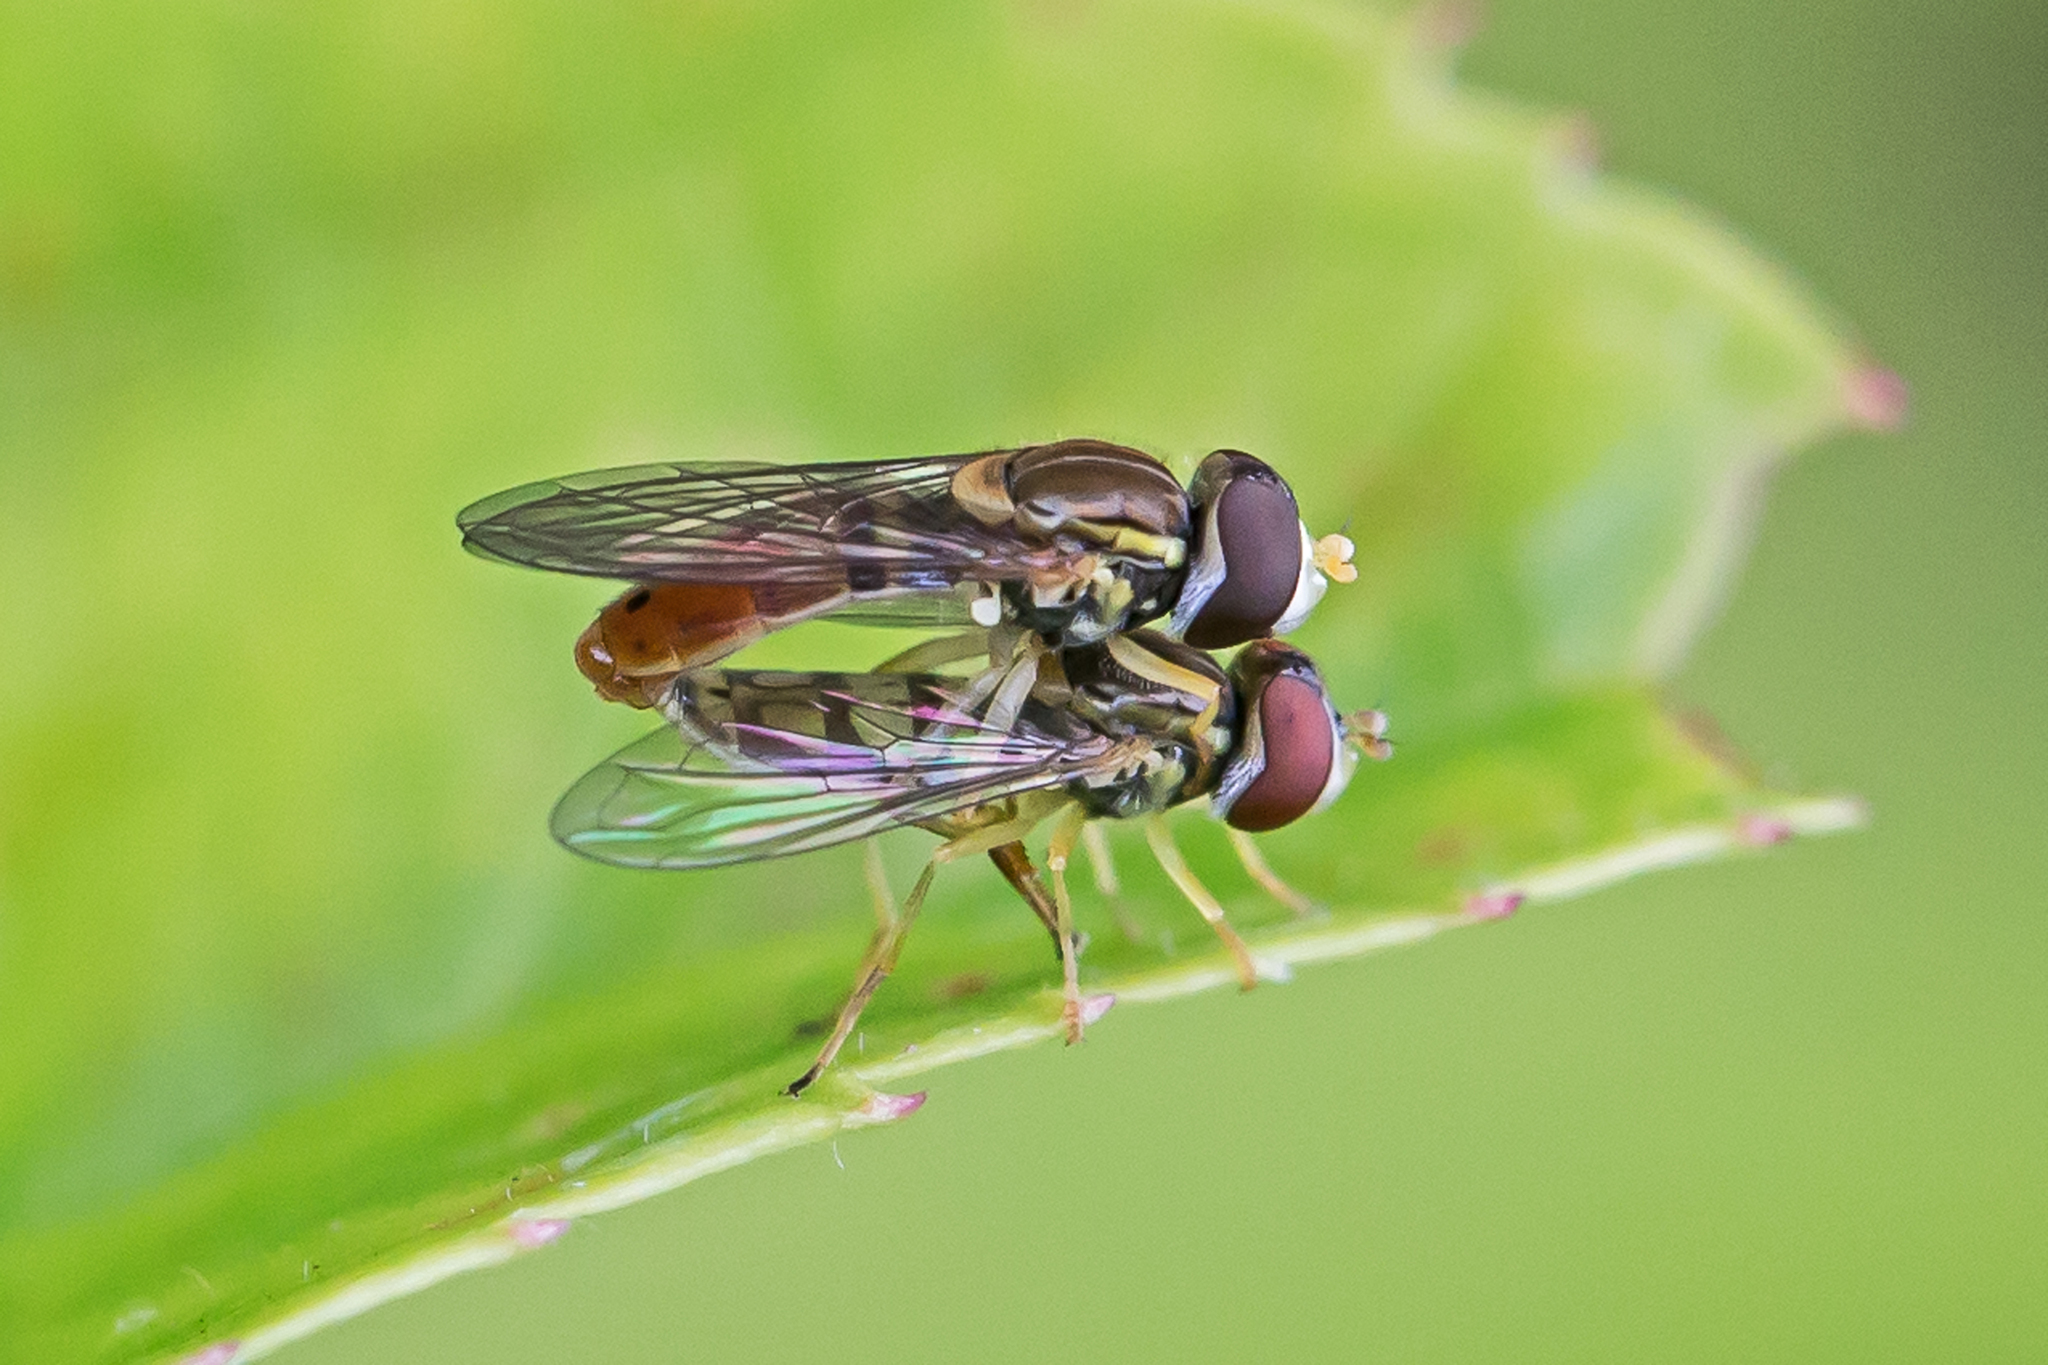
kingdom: Animalia
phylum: Arthropoda
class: Insecta
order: Diptera
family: Syrphidae
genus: Toxomerus
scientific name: Toxomerus marginatus
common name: Syrphid fly
